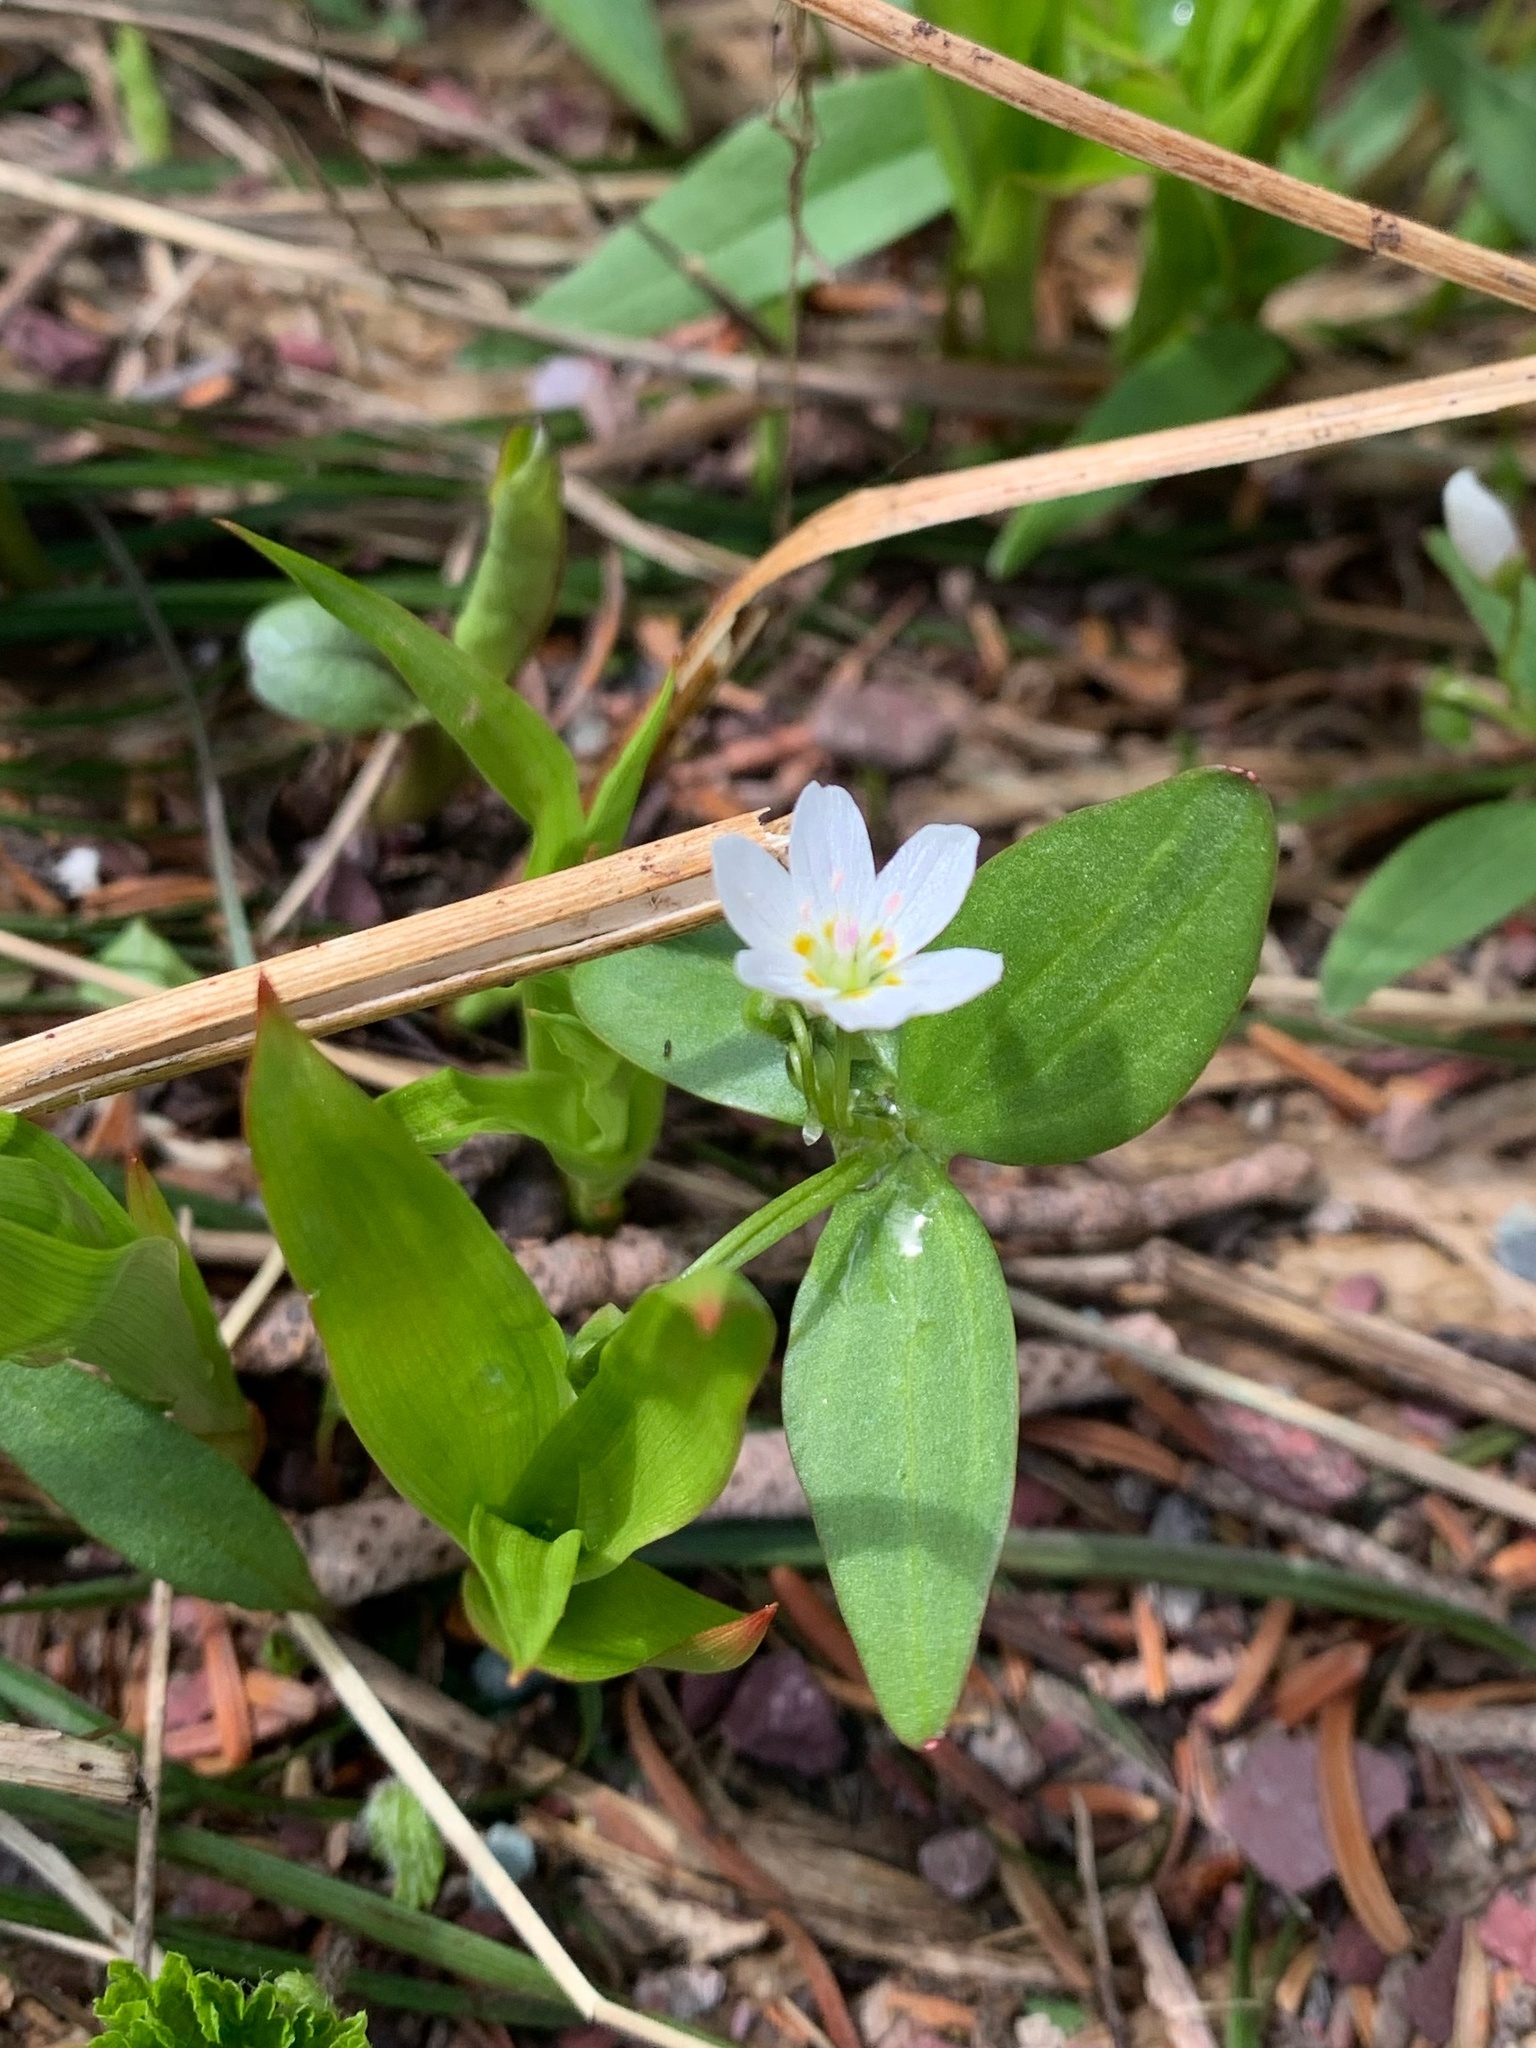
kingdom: Plantae
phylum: Tracheophyta
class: Magnoliopsida
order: Caryophyllales
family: Montiaceae
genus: Claytonia
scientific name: Claytonia lanceolata
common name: Western spring-beauty
